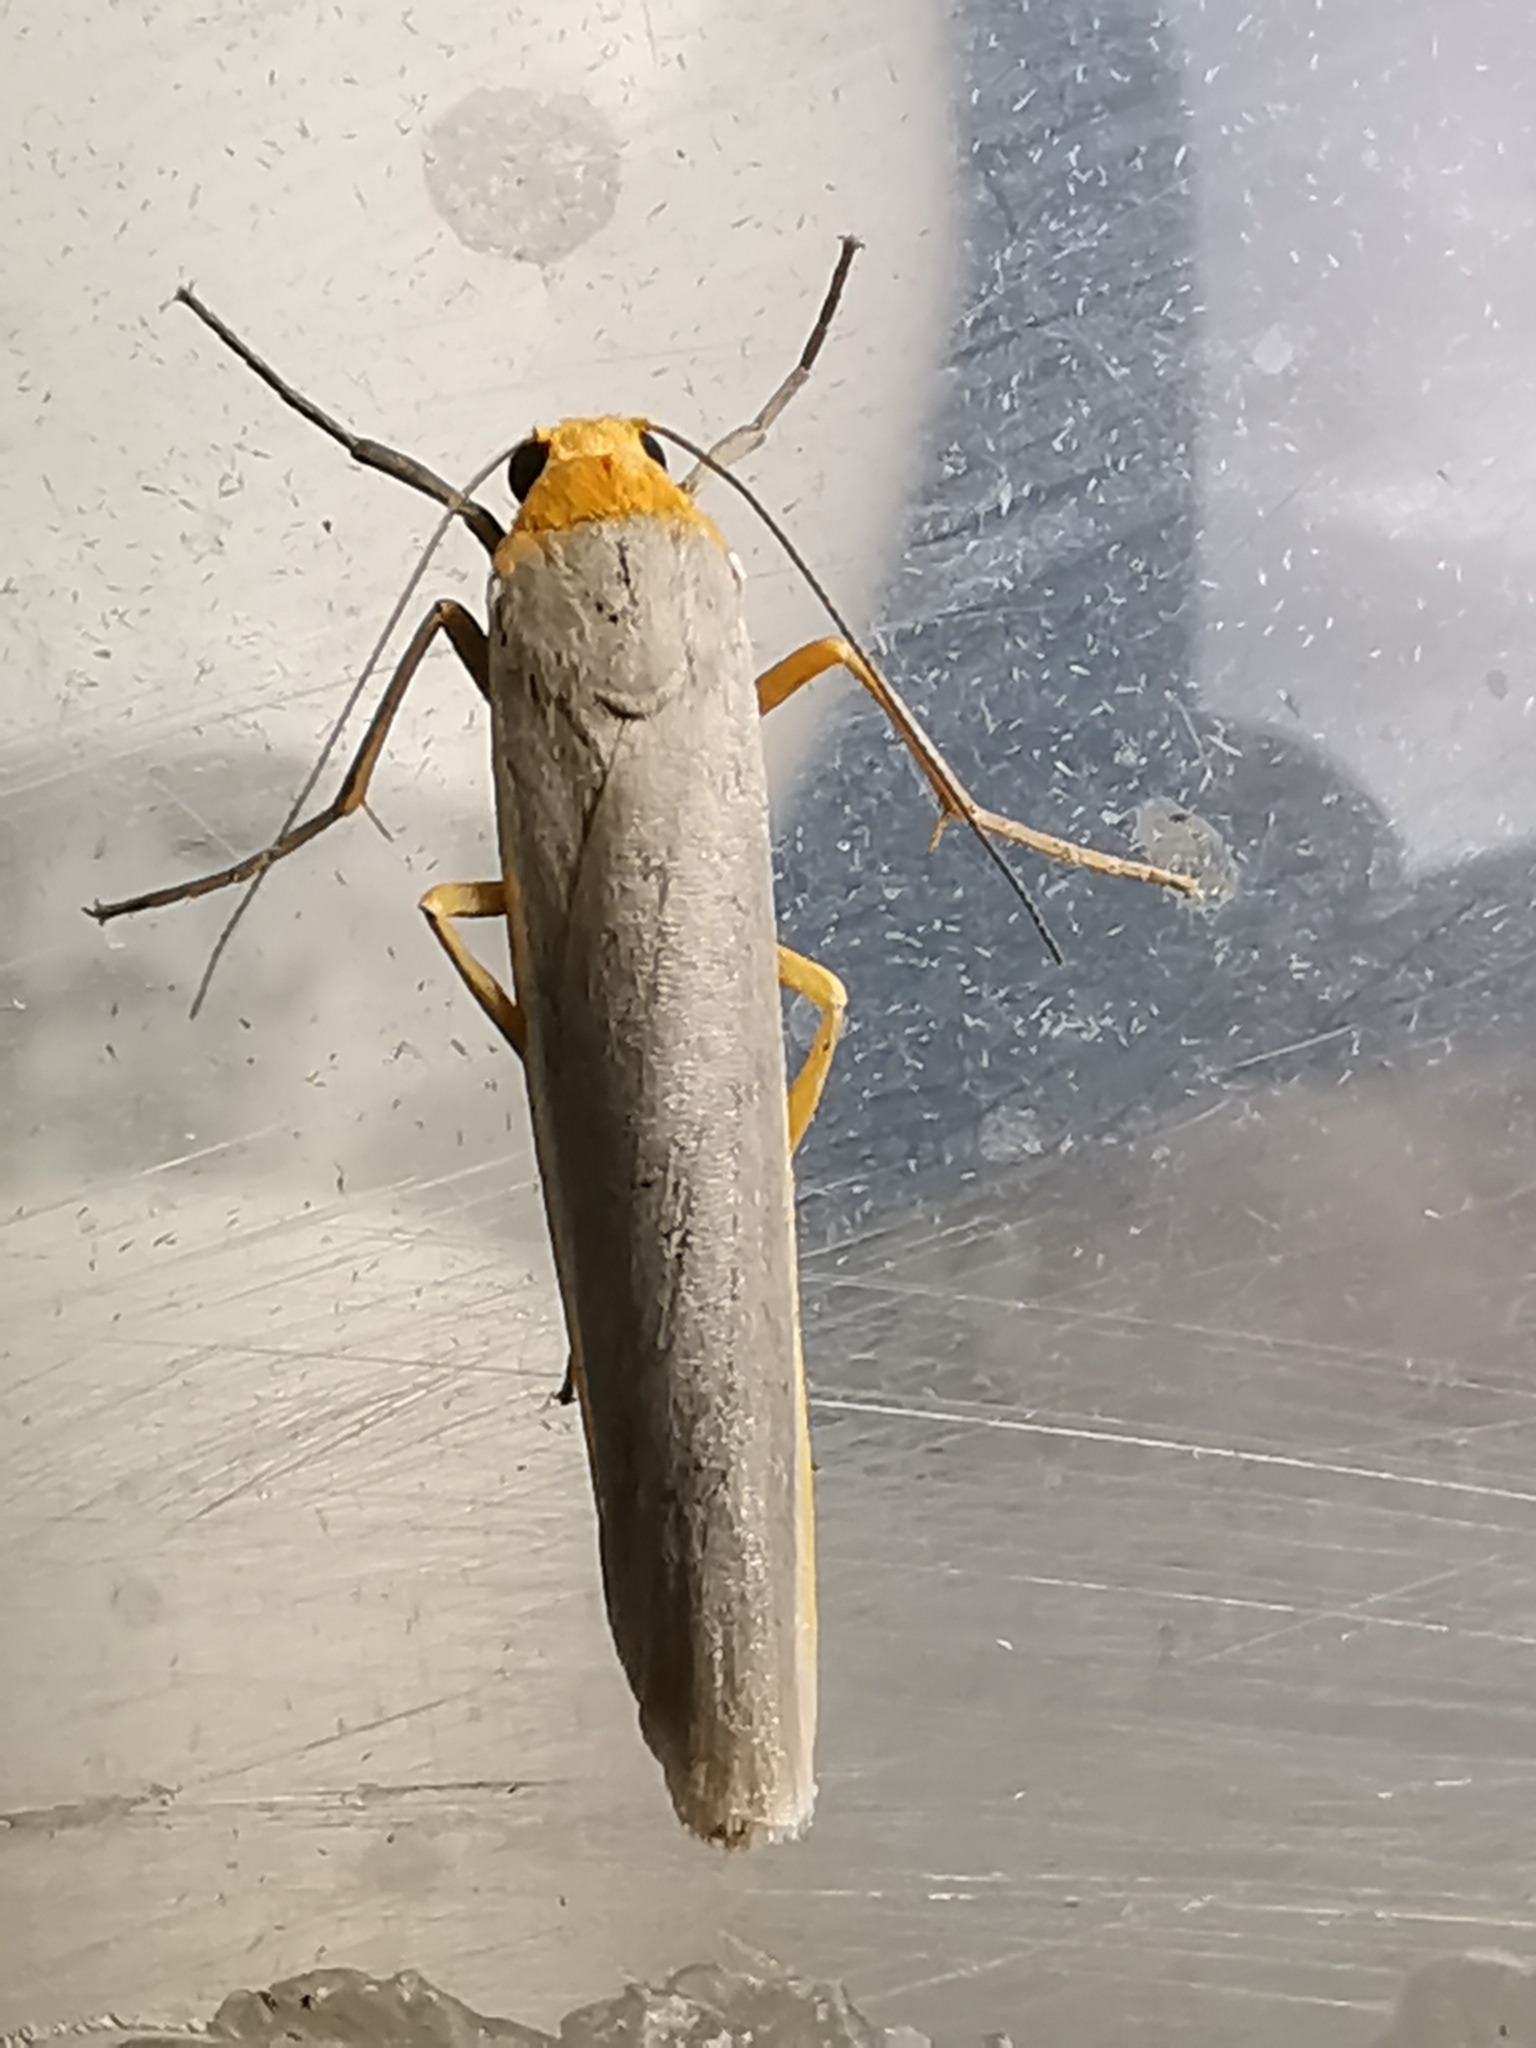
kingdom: Animalia
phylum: Arthropoda
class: Insecta
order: Lepidoptera
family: Erebidae
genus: Manulea
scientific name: Manulea complana
